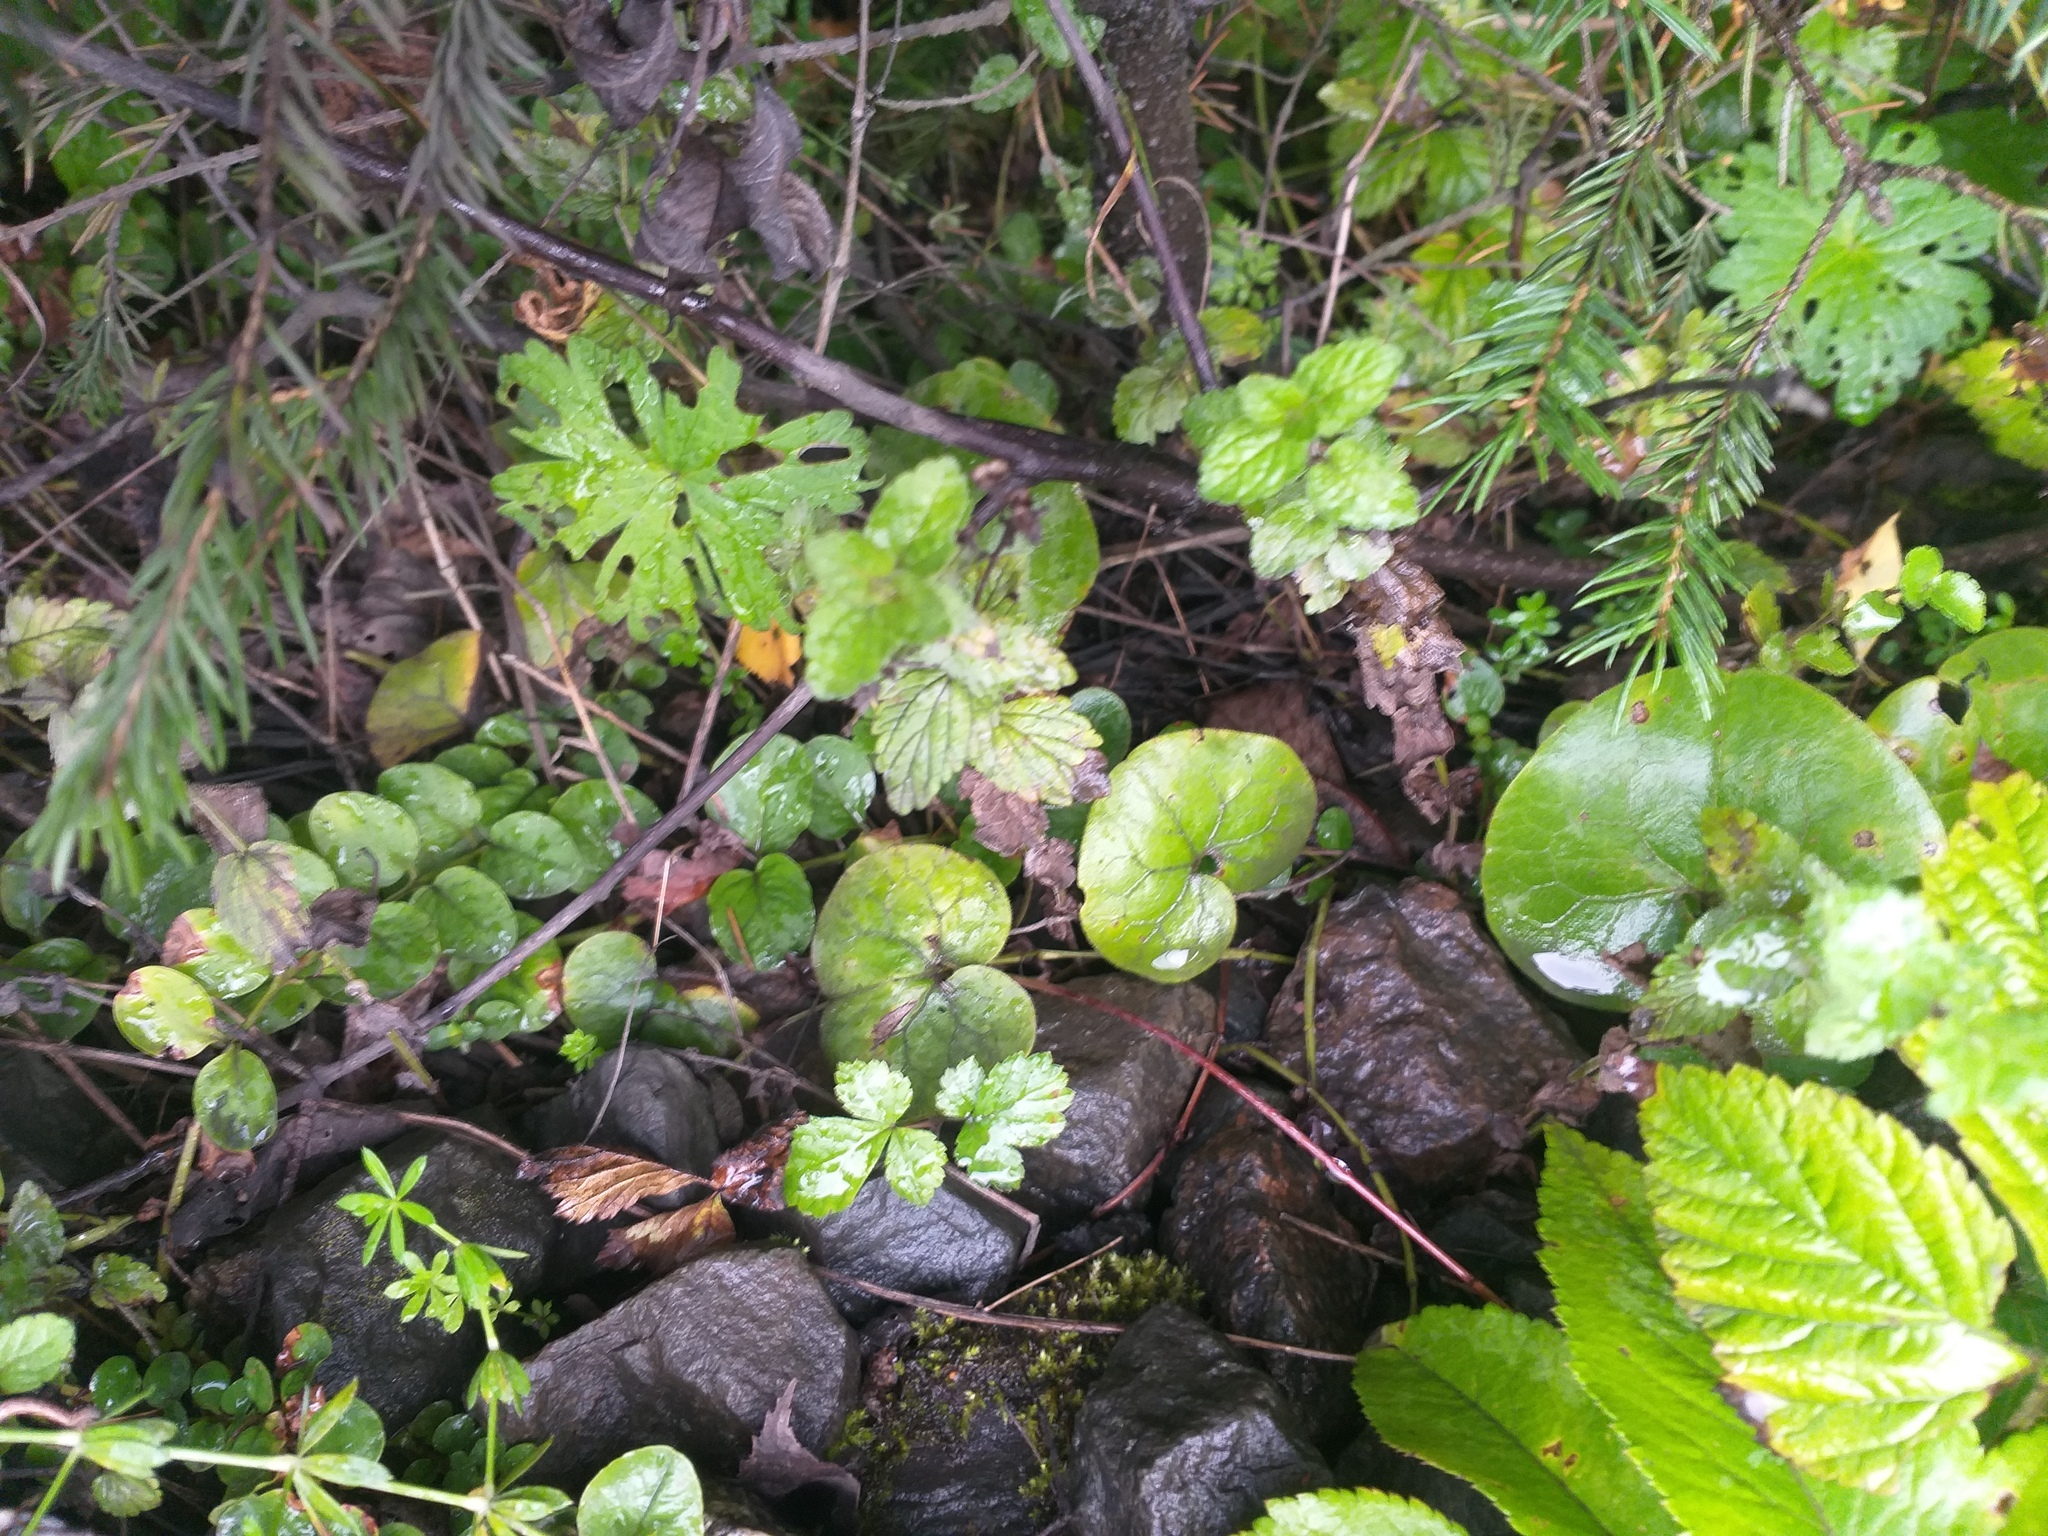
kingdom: Plantae
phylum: Tracheophyta
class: Magnoliopsida
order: Piperales
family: Aristolochiaceae
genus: Asarum
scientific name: Asarum europaeum
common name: Asarabacca
